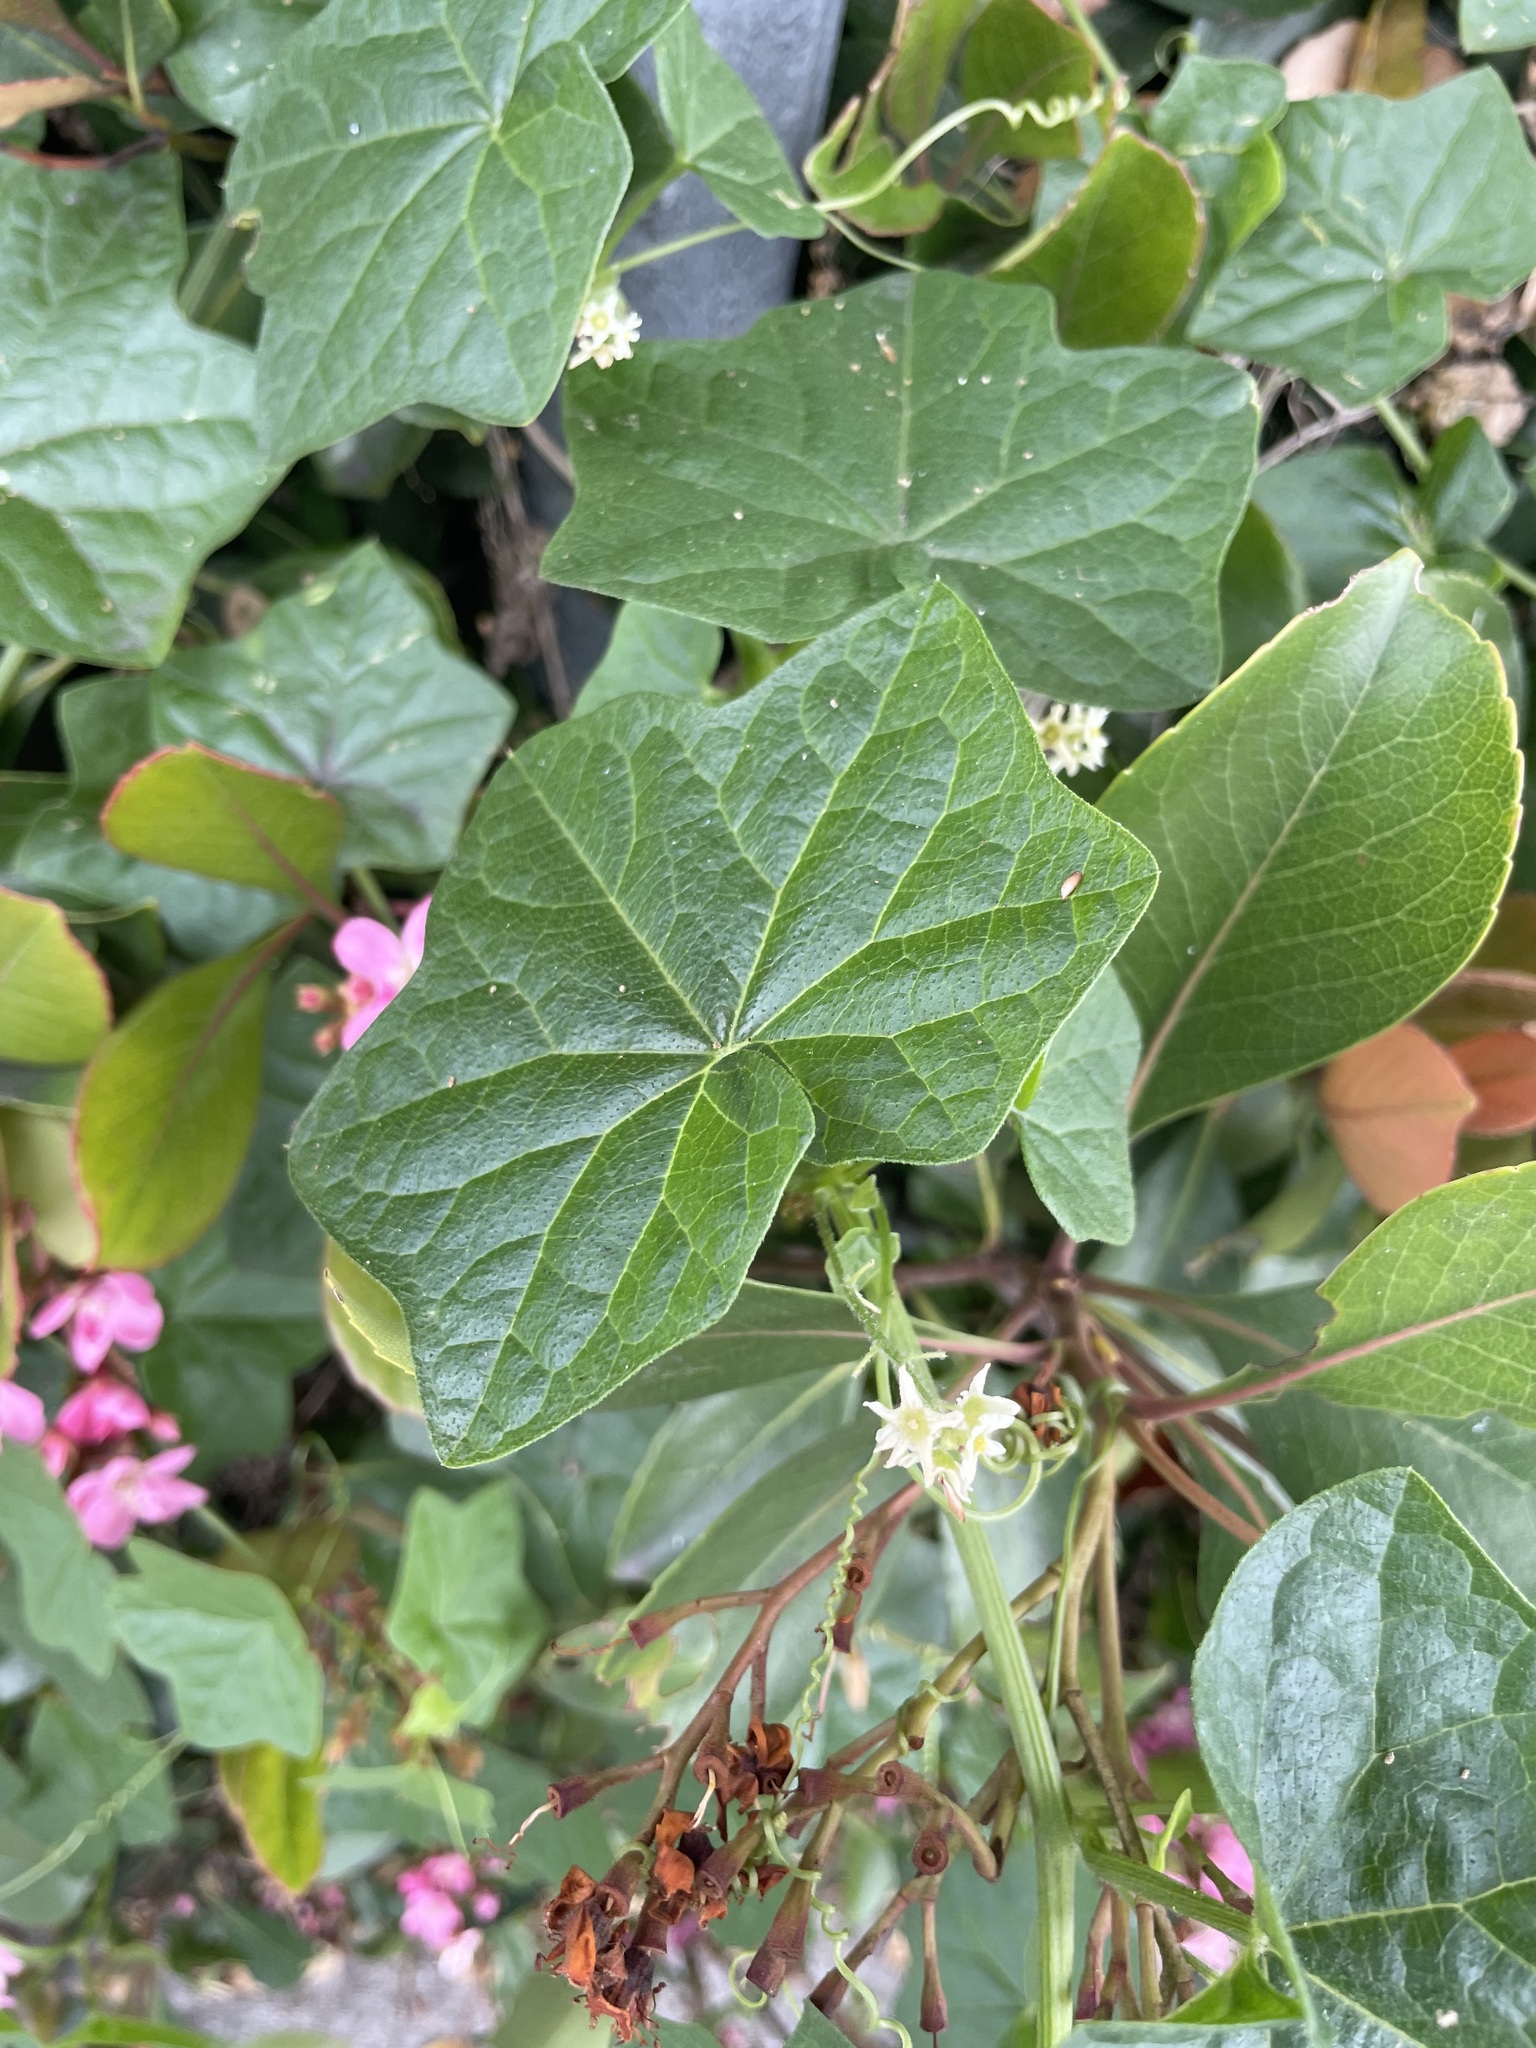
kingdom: Plantae
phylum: Tracheophyta
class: Magnoliopsida
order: Cucurbitales
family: Cucurbitaceae
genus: Marah
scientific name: Marah fabacea
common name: California manroot
